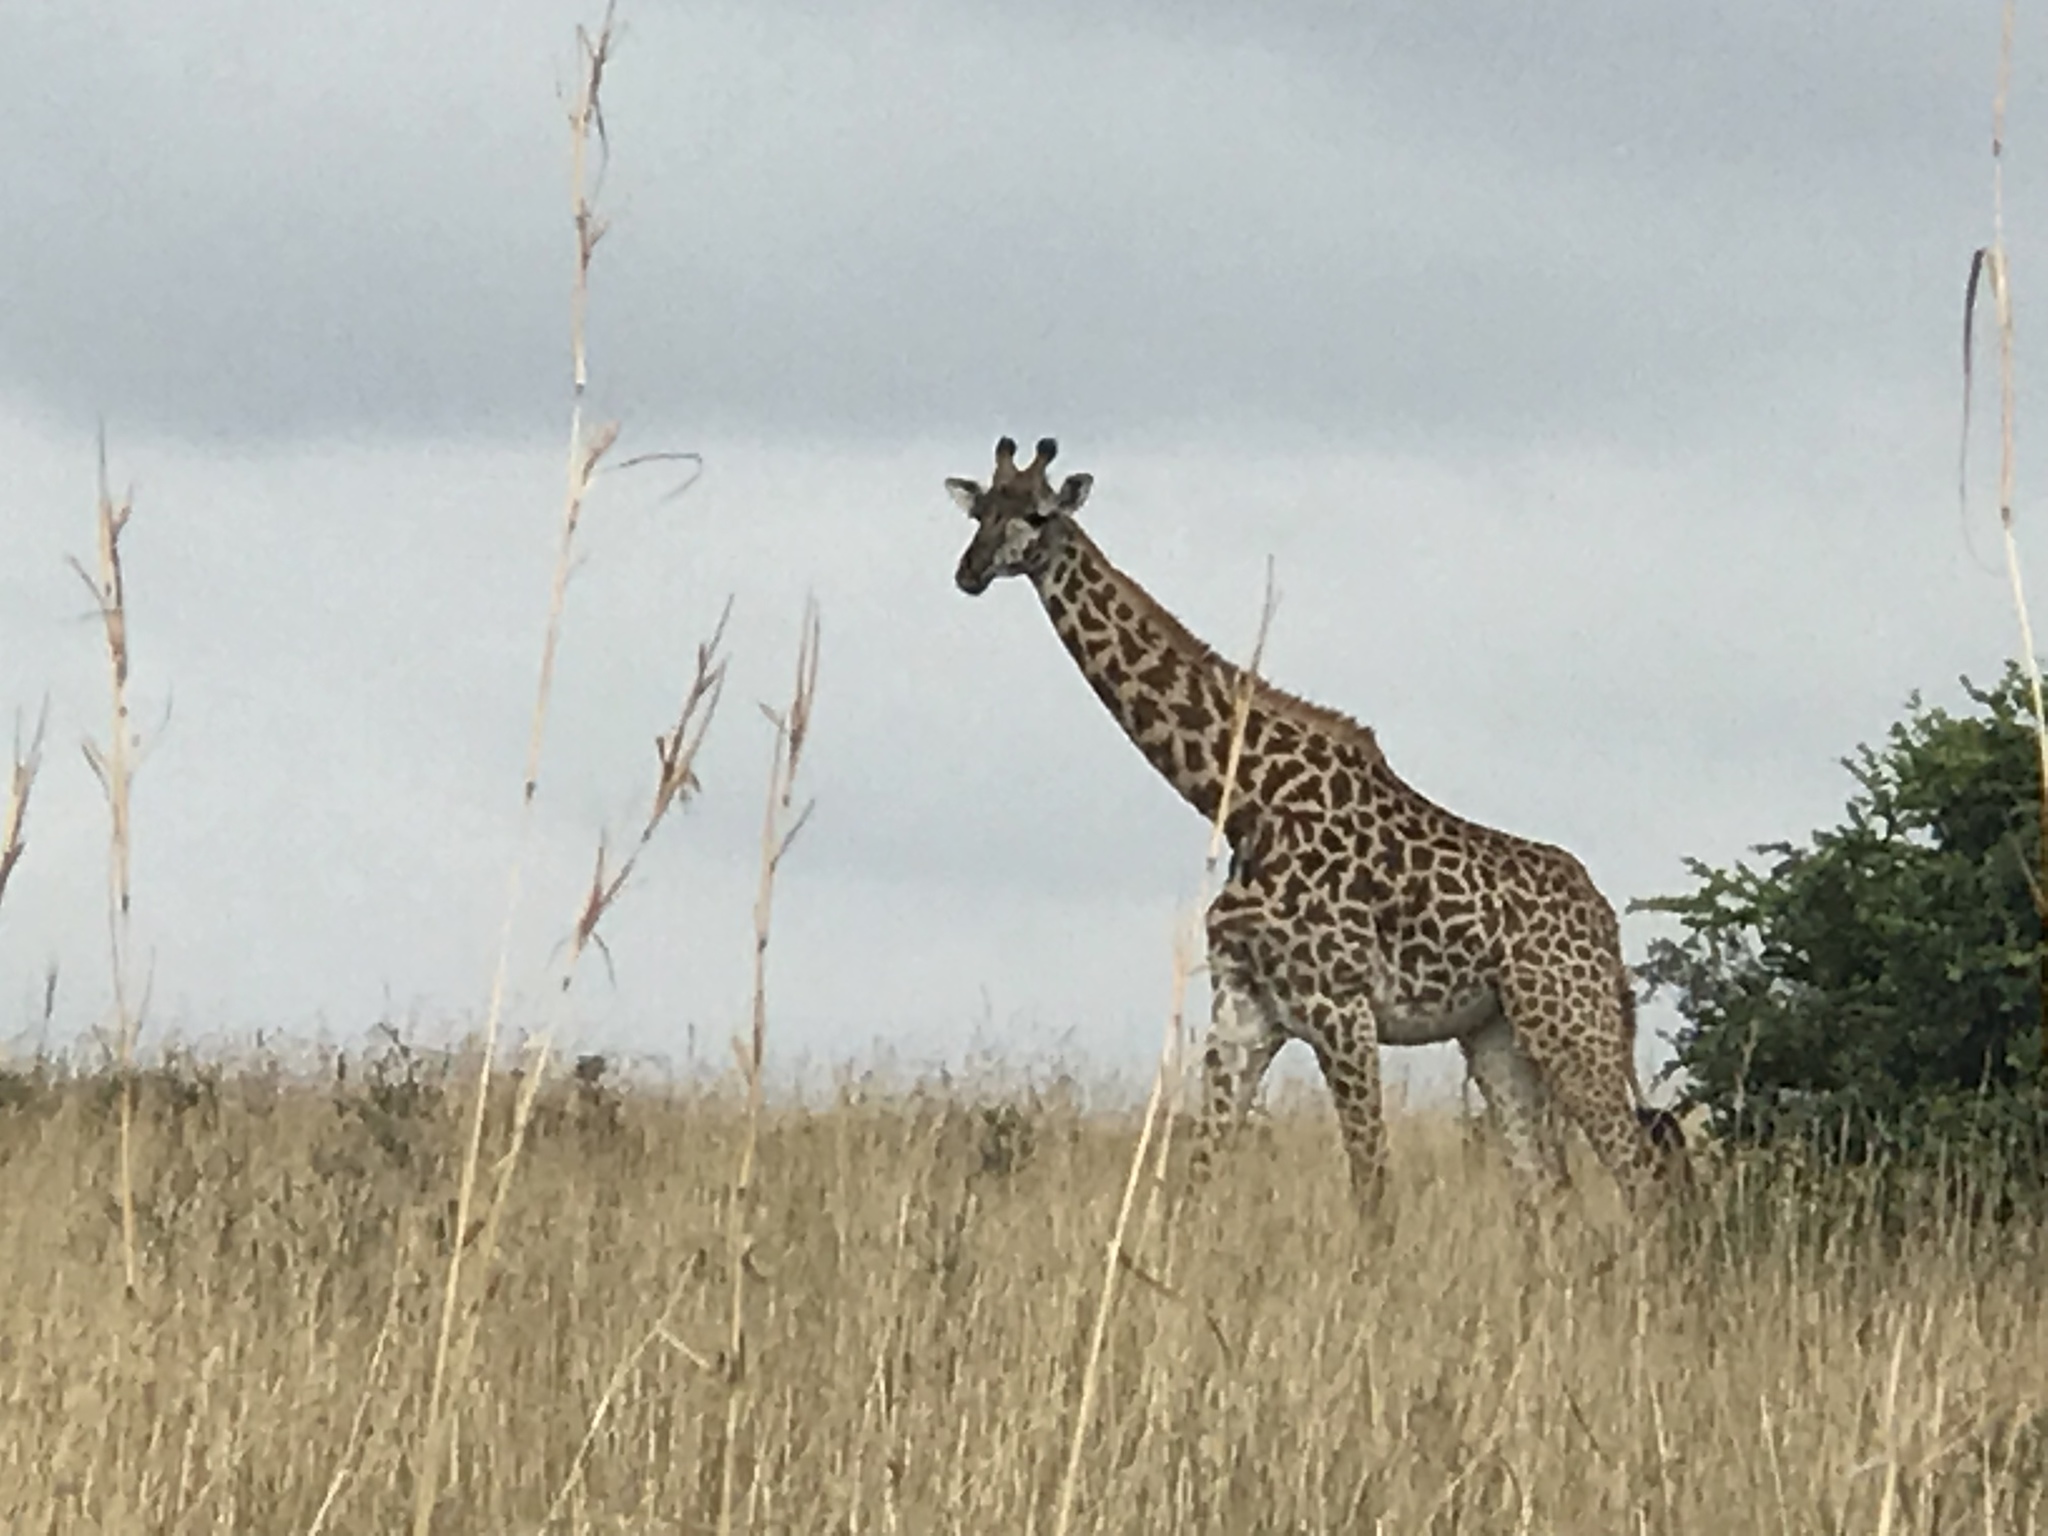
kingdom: Animalia
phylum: Chordata
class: Mammalia
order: Artiodactyla
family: Giraffidae
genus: Giraffa
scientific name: Giraffa tippelskirchi
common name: Masai giraffe
